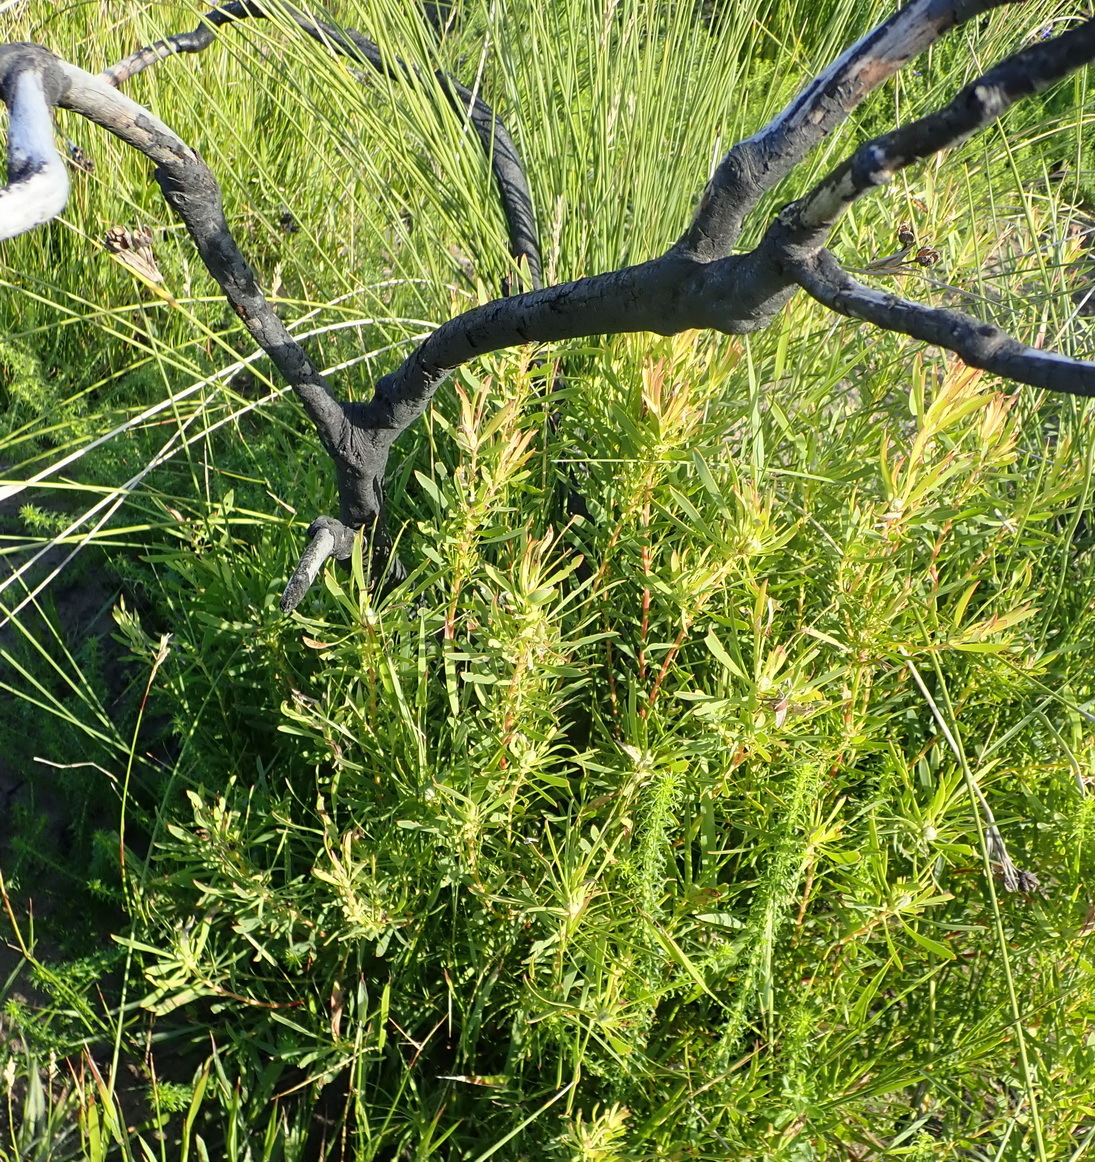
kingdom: Plantae
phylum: Tracheophyta
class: Magnoliopsida
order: Proteales
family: Proteaceae
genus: Leucadendron
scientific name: Leucadendron salignum
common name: Common sunshine conebush
